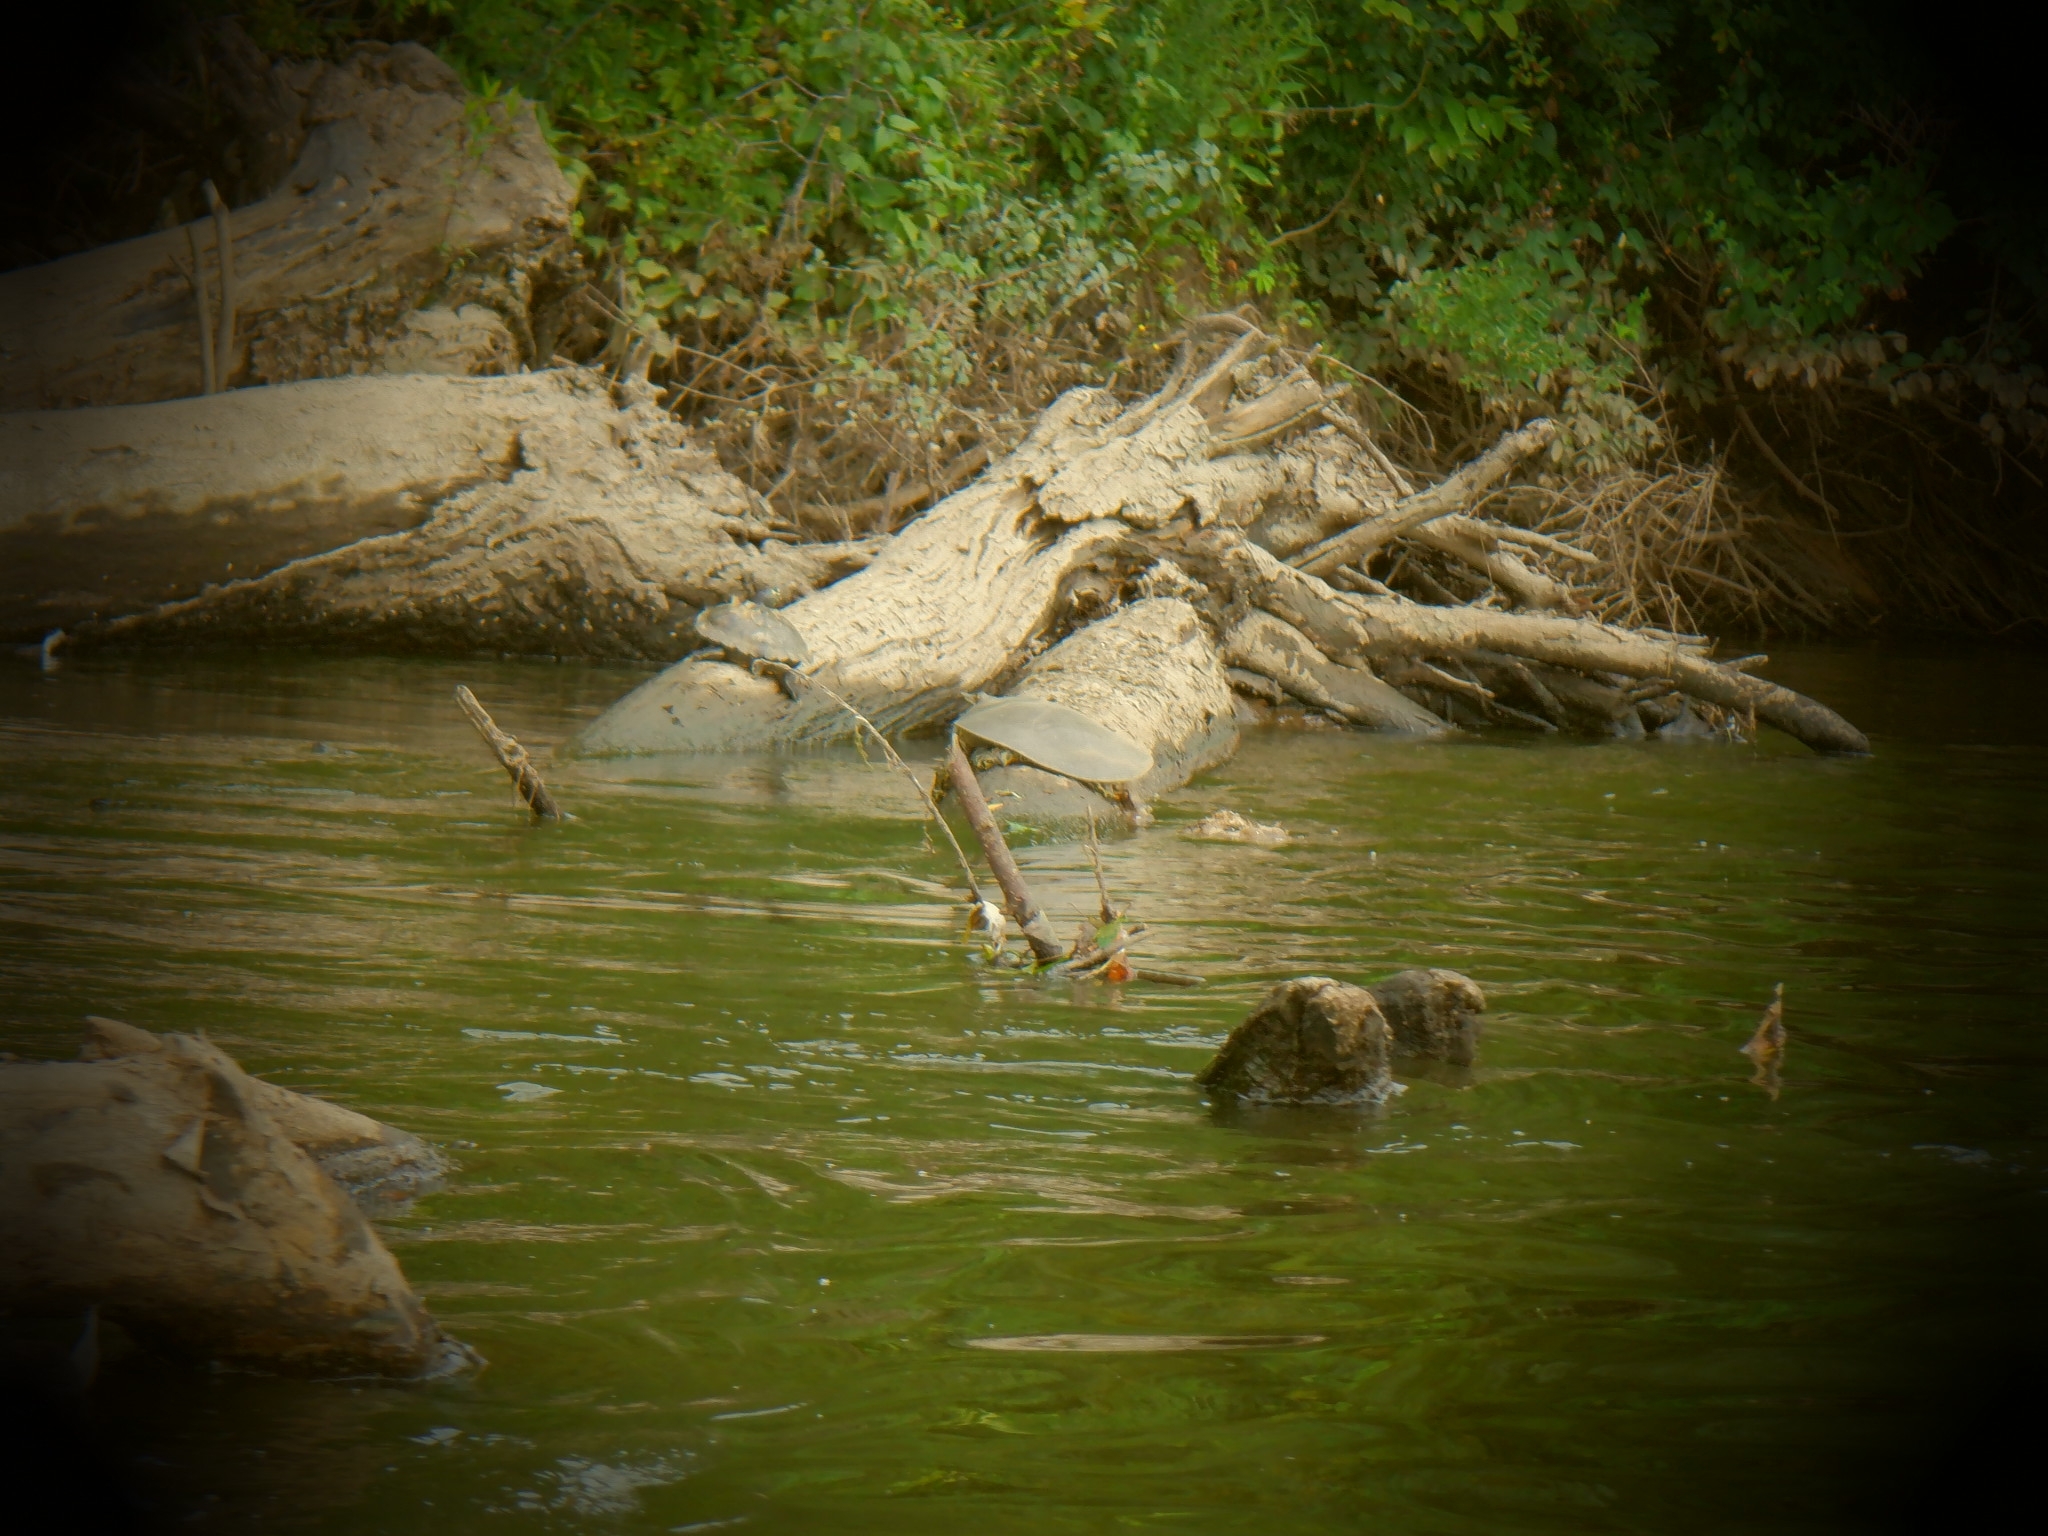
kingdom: Animalia
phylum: Chordata
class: Testudines
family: Emydidae
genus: Graptemys
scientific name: Graptemys ouachitensis
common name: Ouachita map turtle
